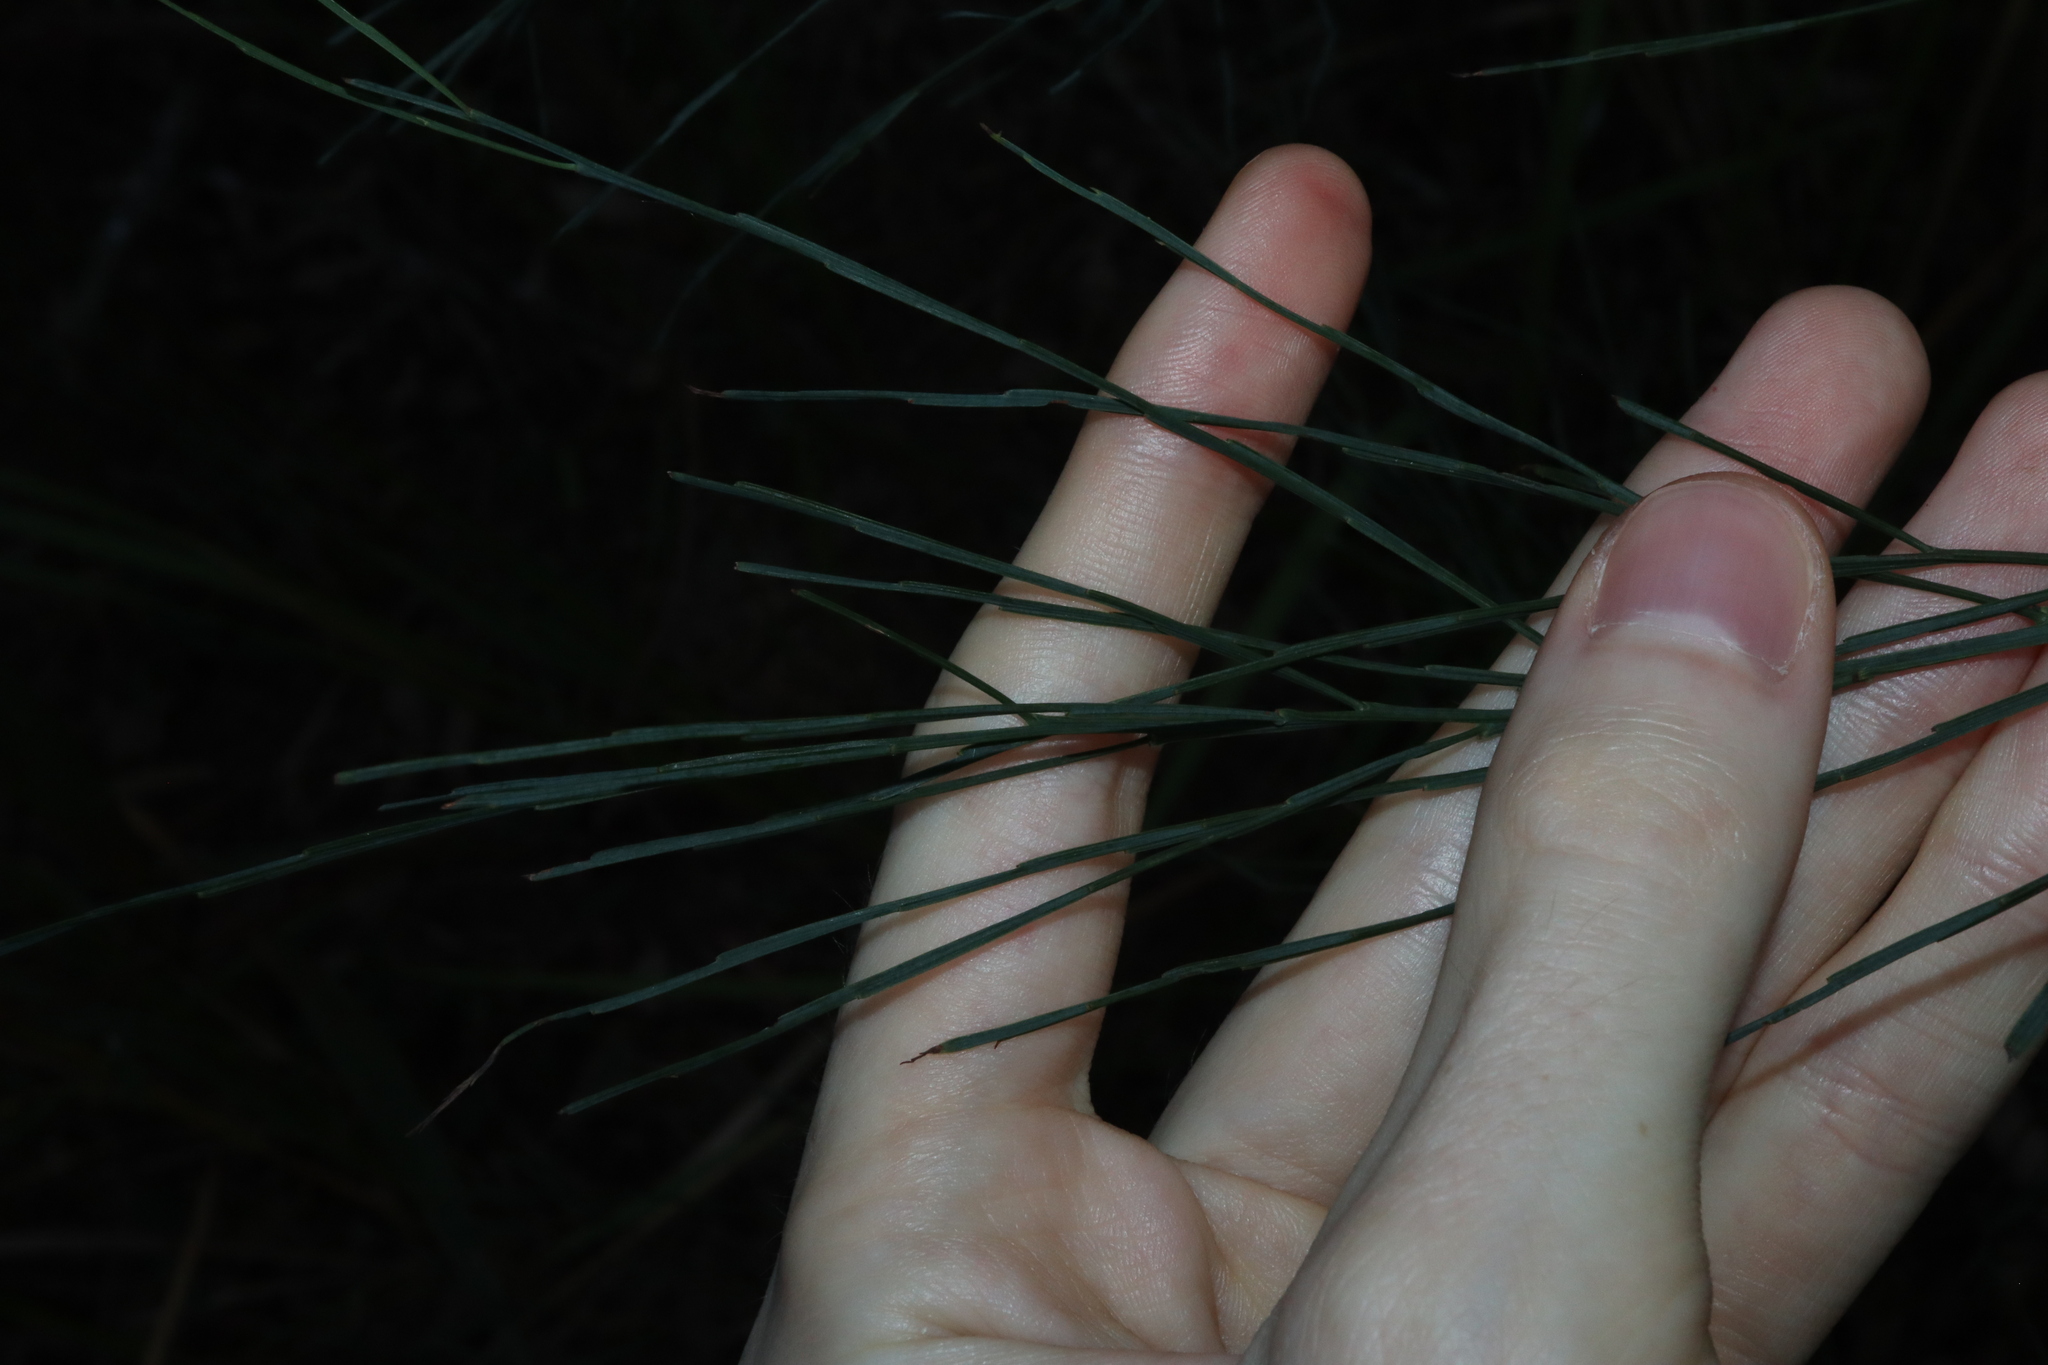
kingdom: Plantae
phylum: Tracheophyta
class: Magnoliopsida
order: Fabales
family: Fabaceae
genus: Jacksonia
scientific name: Jacksonia scoparia
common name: Dogwood
